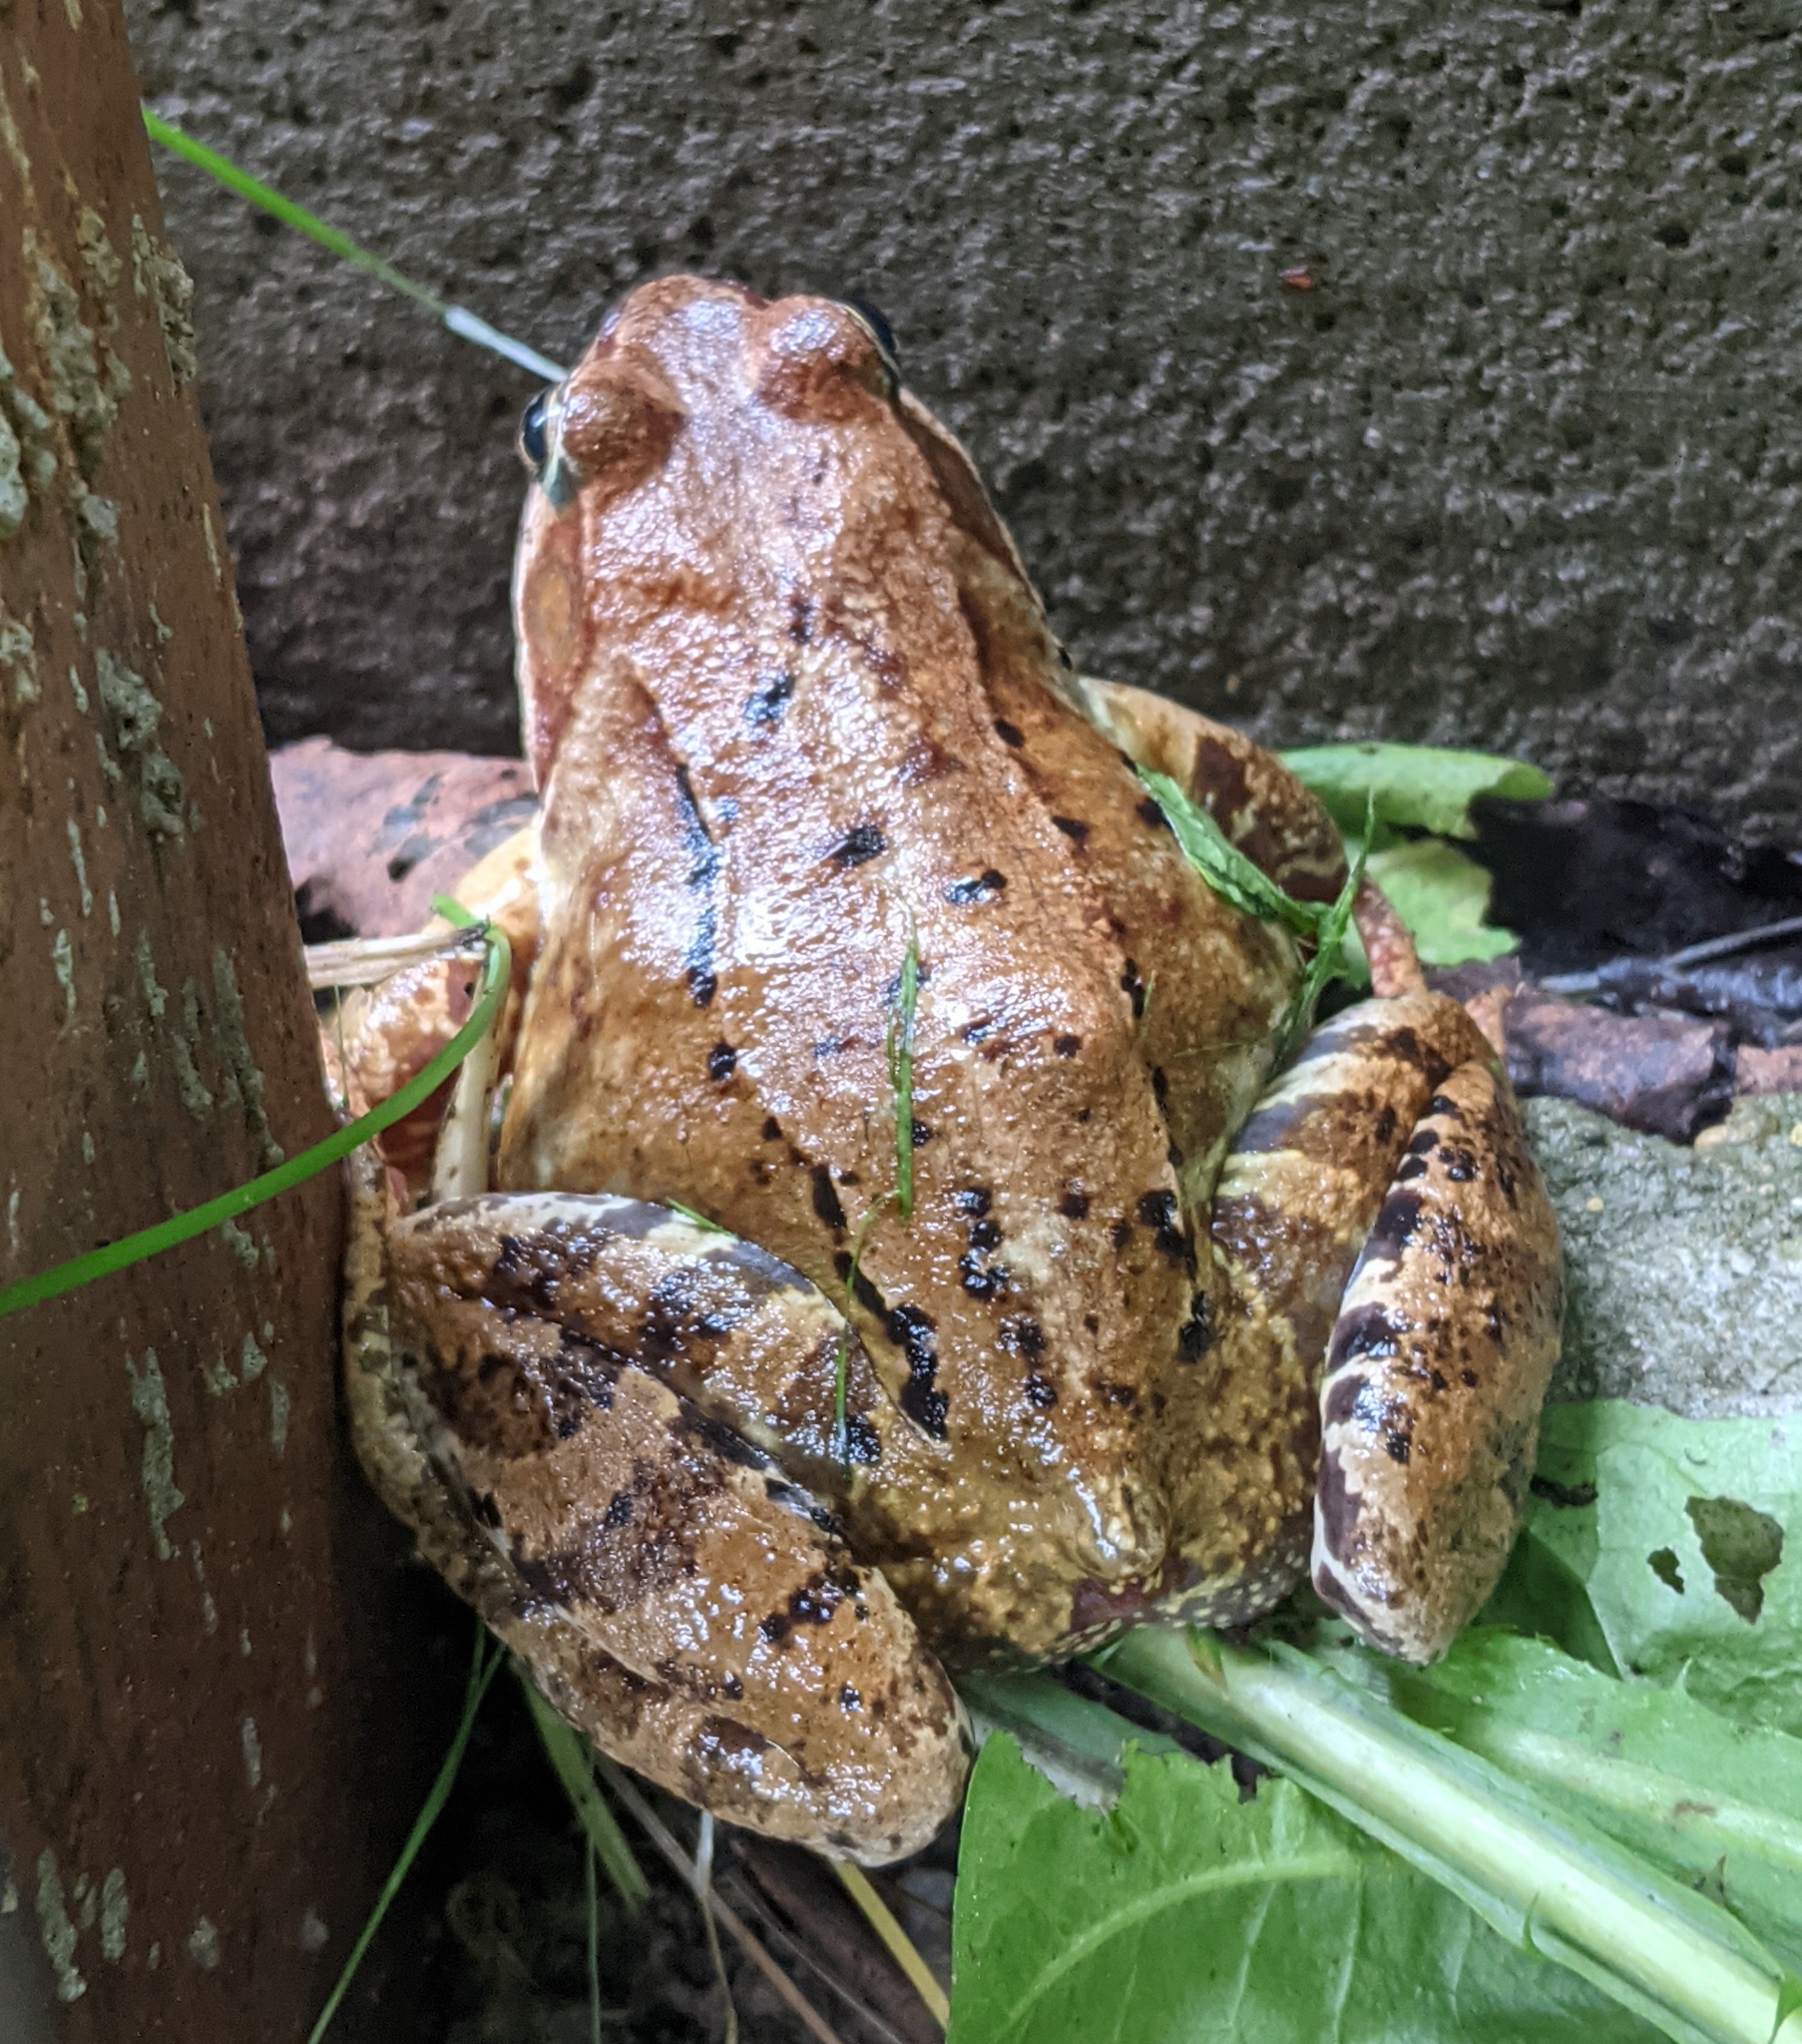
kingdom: Animalia
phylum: Chordata
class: Amphibia
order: Anura
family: Ranidae
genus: Rana
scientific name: Rana temporaria
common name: Common frog
